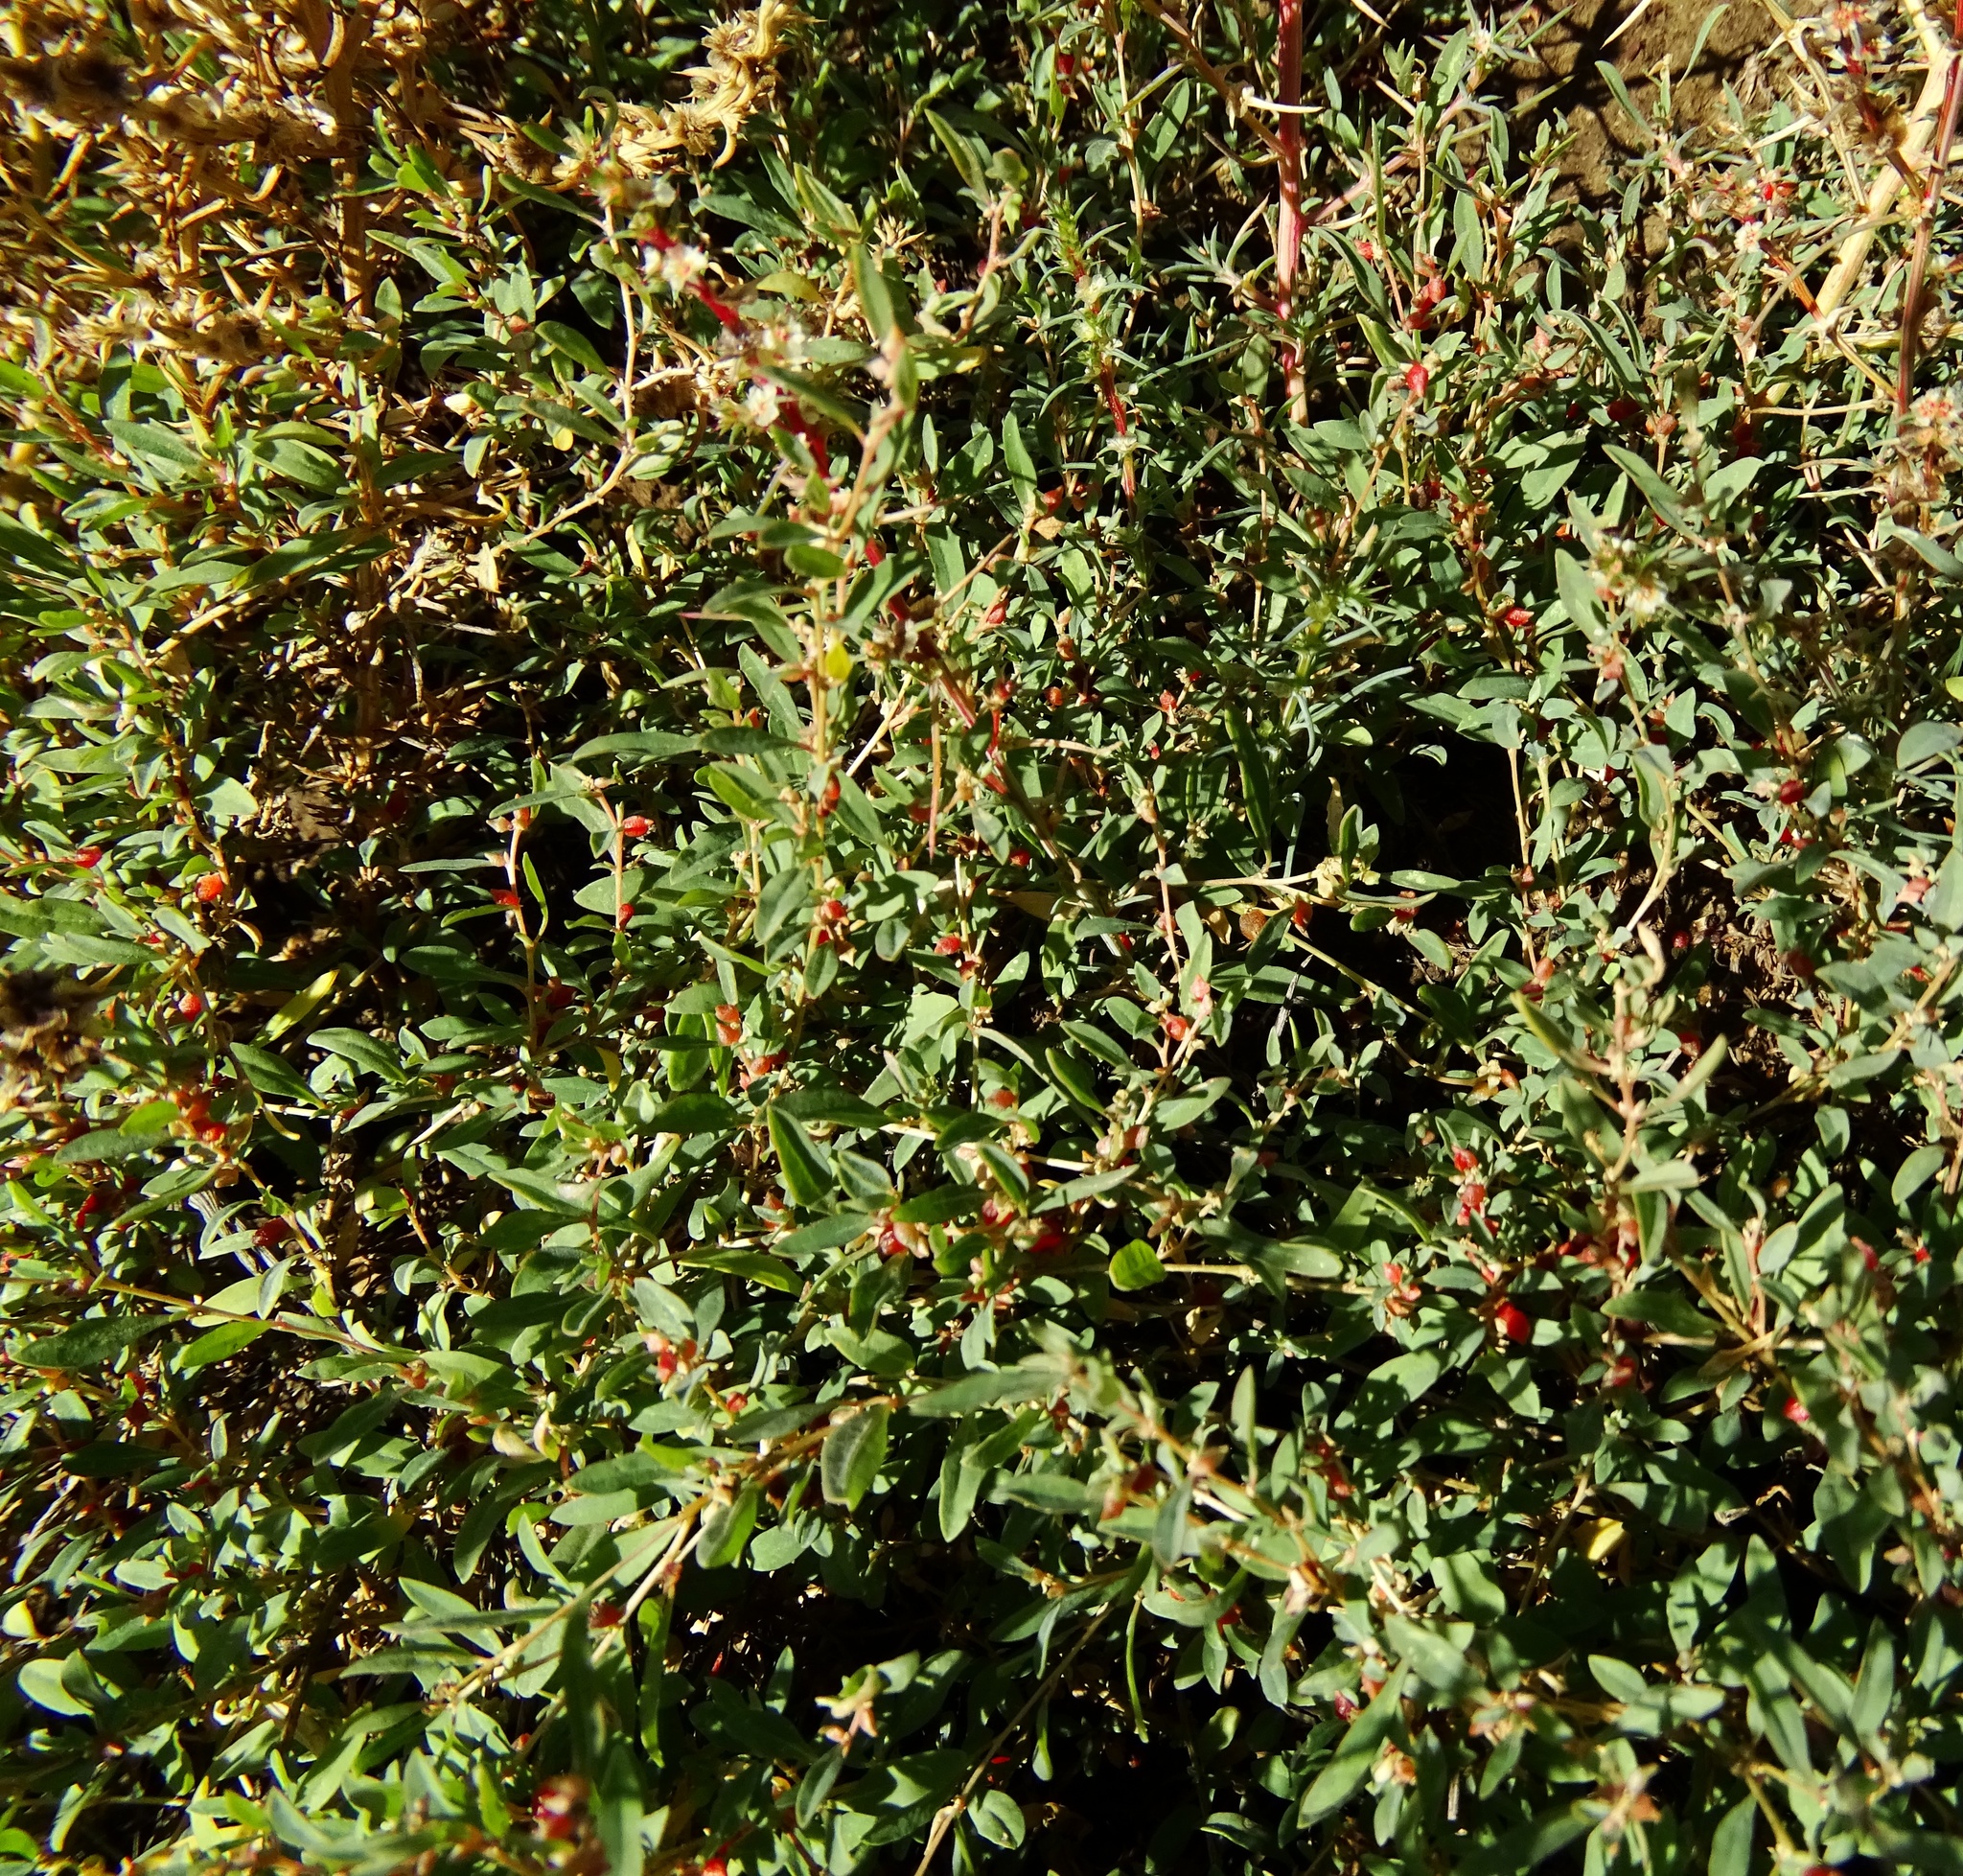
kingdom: Plantae
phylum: Tracheophyta
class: Magnoliopsida
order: Caryophyllales
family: Amaranthaceae
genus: Atriplex
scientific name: Atriplex semibaccata
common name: Australian saltbush
